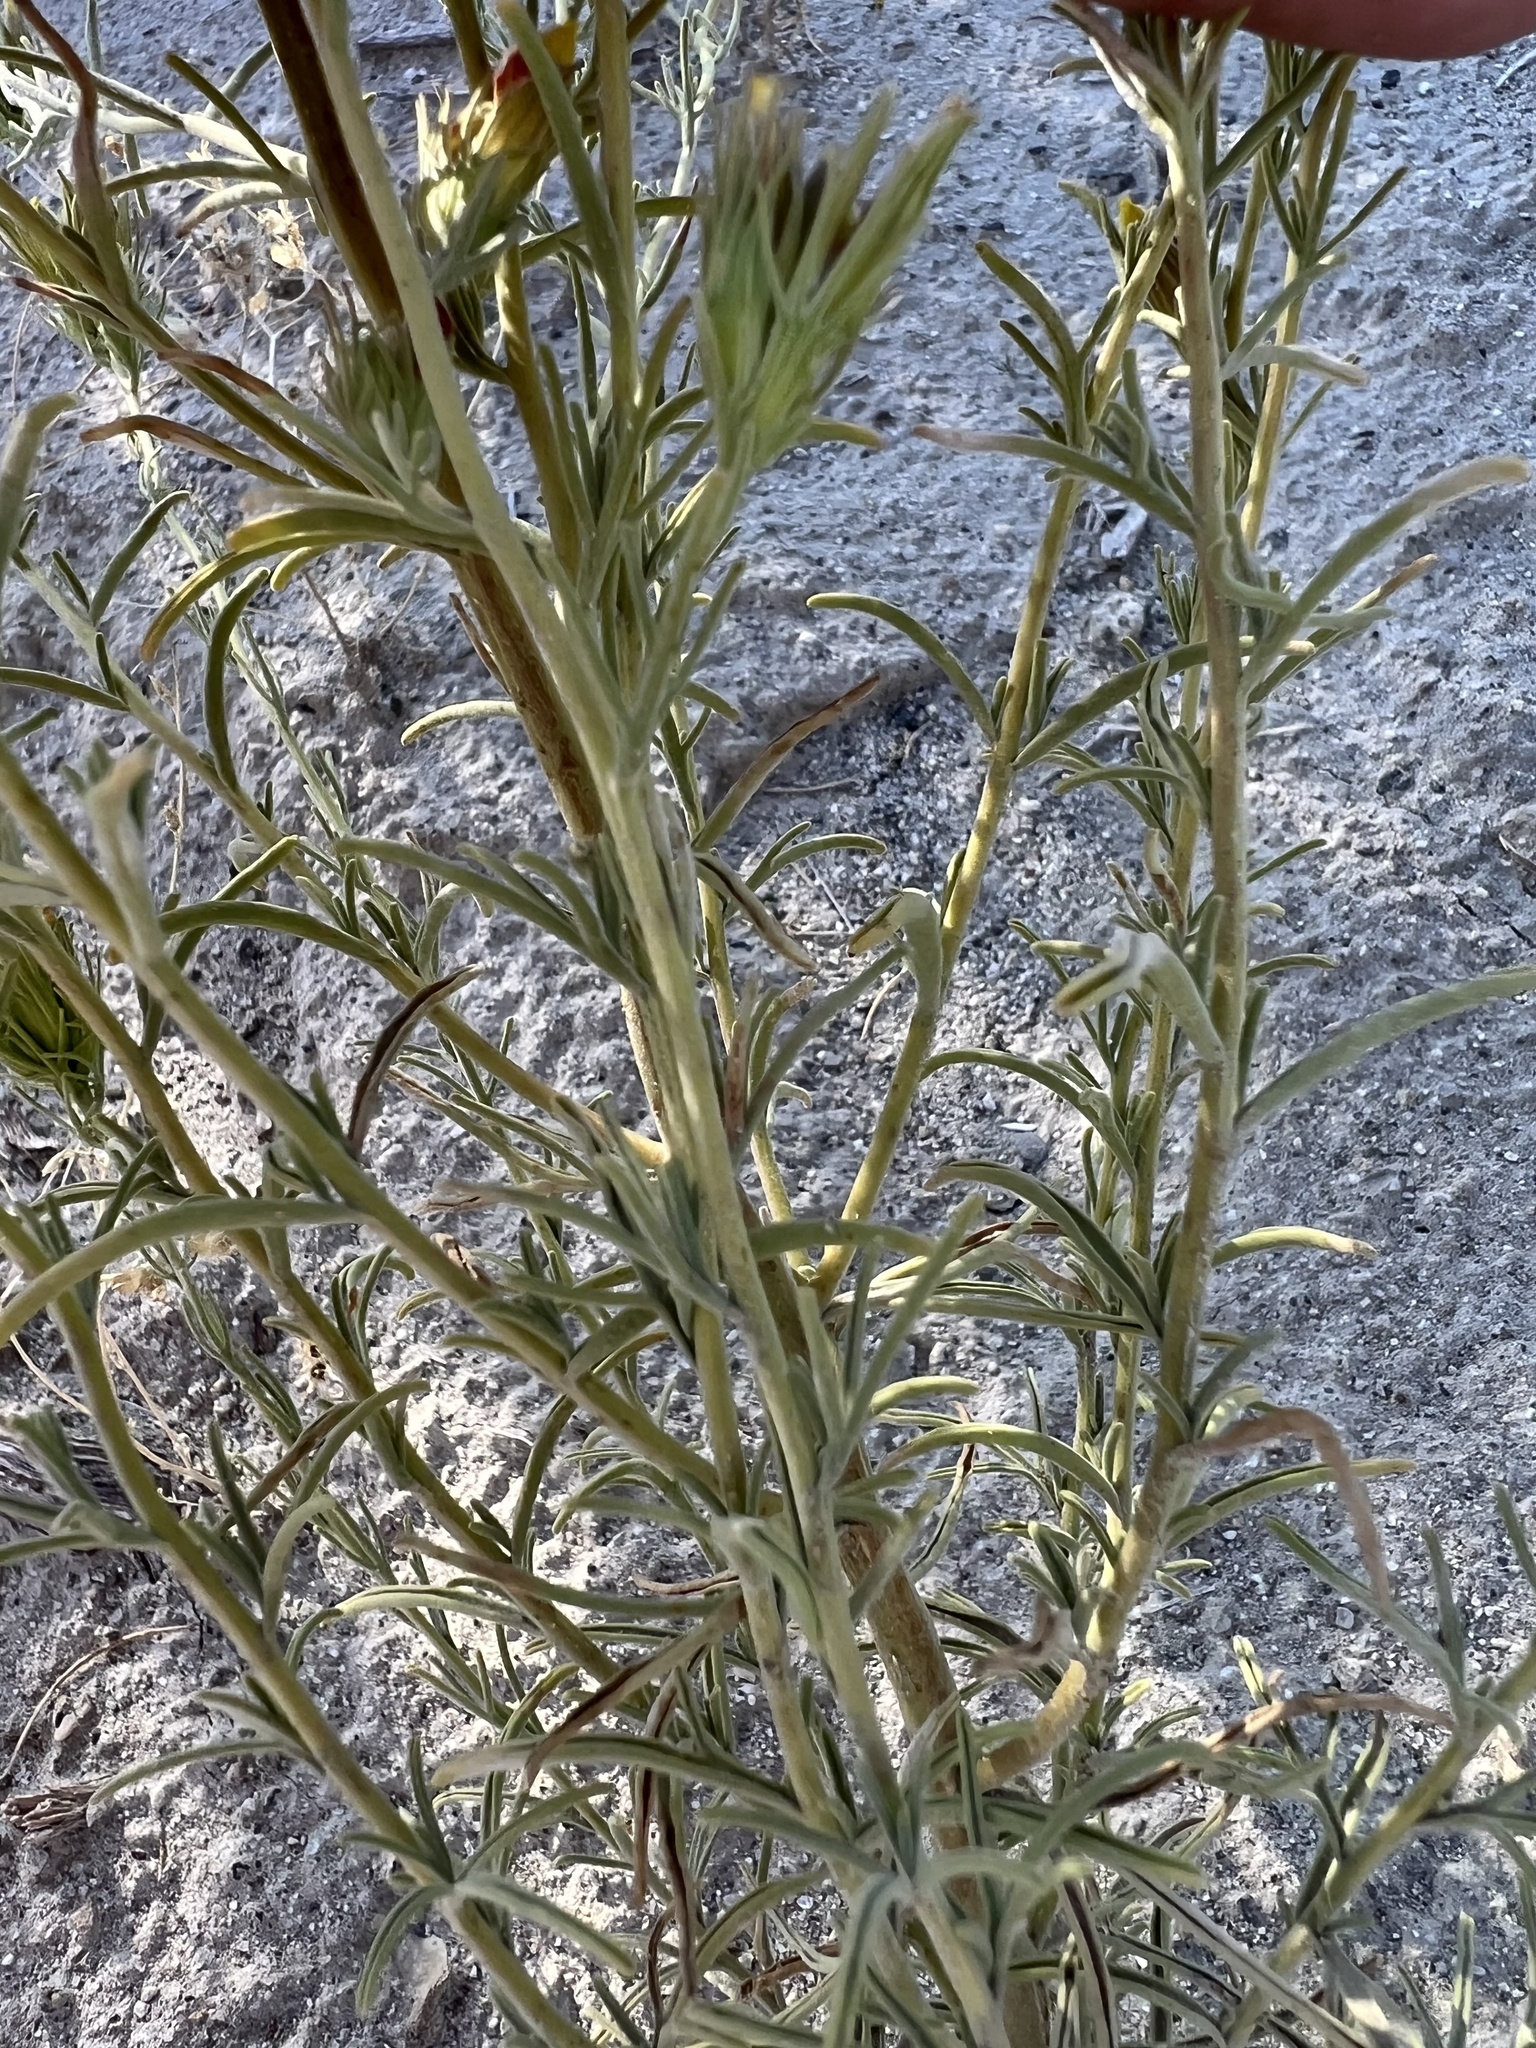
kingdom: Plantae
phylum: Tracheophyta
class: Magnoliopsida
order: Lamiales
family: Orobanchaceae
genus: Cordylanthus
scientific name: Cordylanthus ramosus
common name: Much-branched bird's-beak
